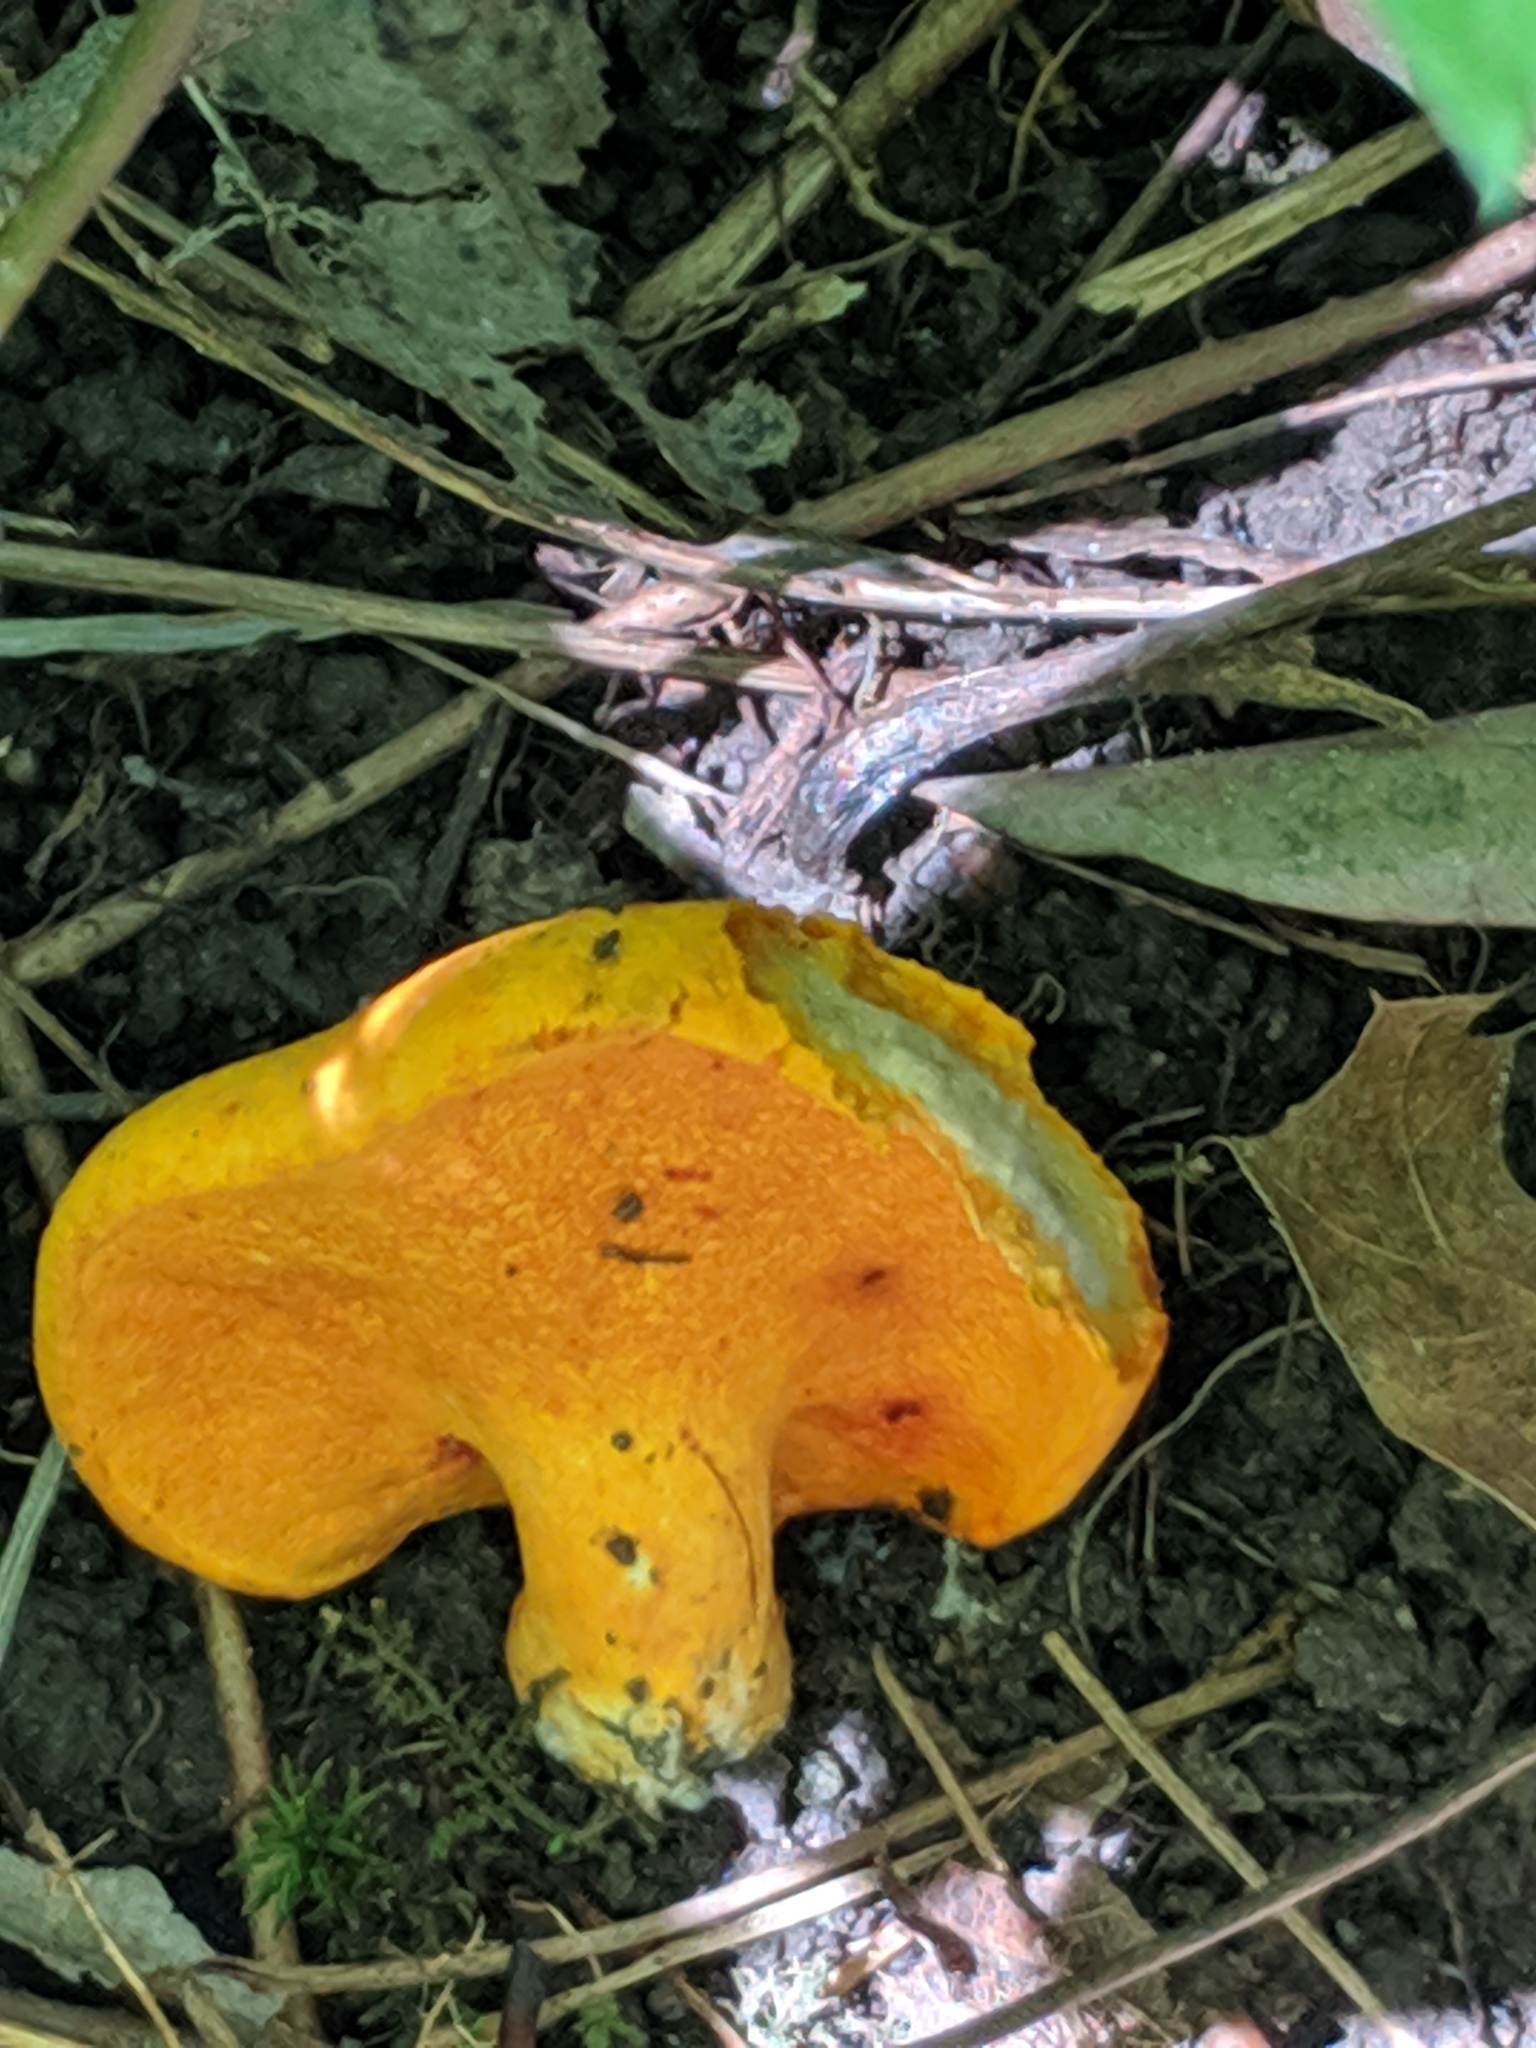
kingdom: Fungi
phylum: Ascomycota
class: Sordariomycetes
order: Hypocreales
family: Hypocreaceae
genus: Hypomyces
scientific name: Hypomyces lactifluorum
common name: Lobster mushroom
